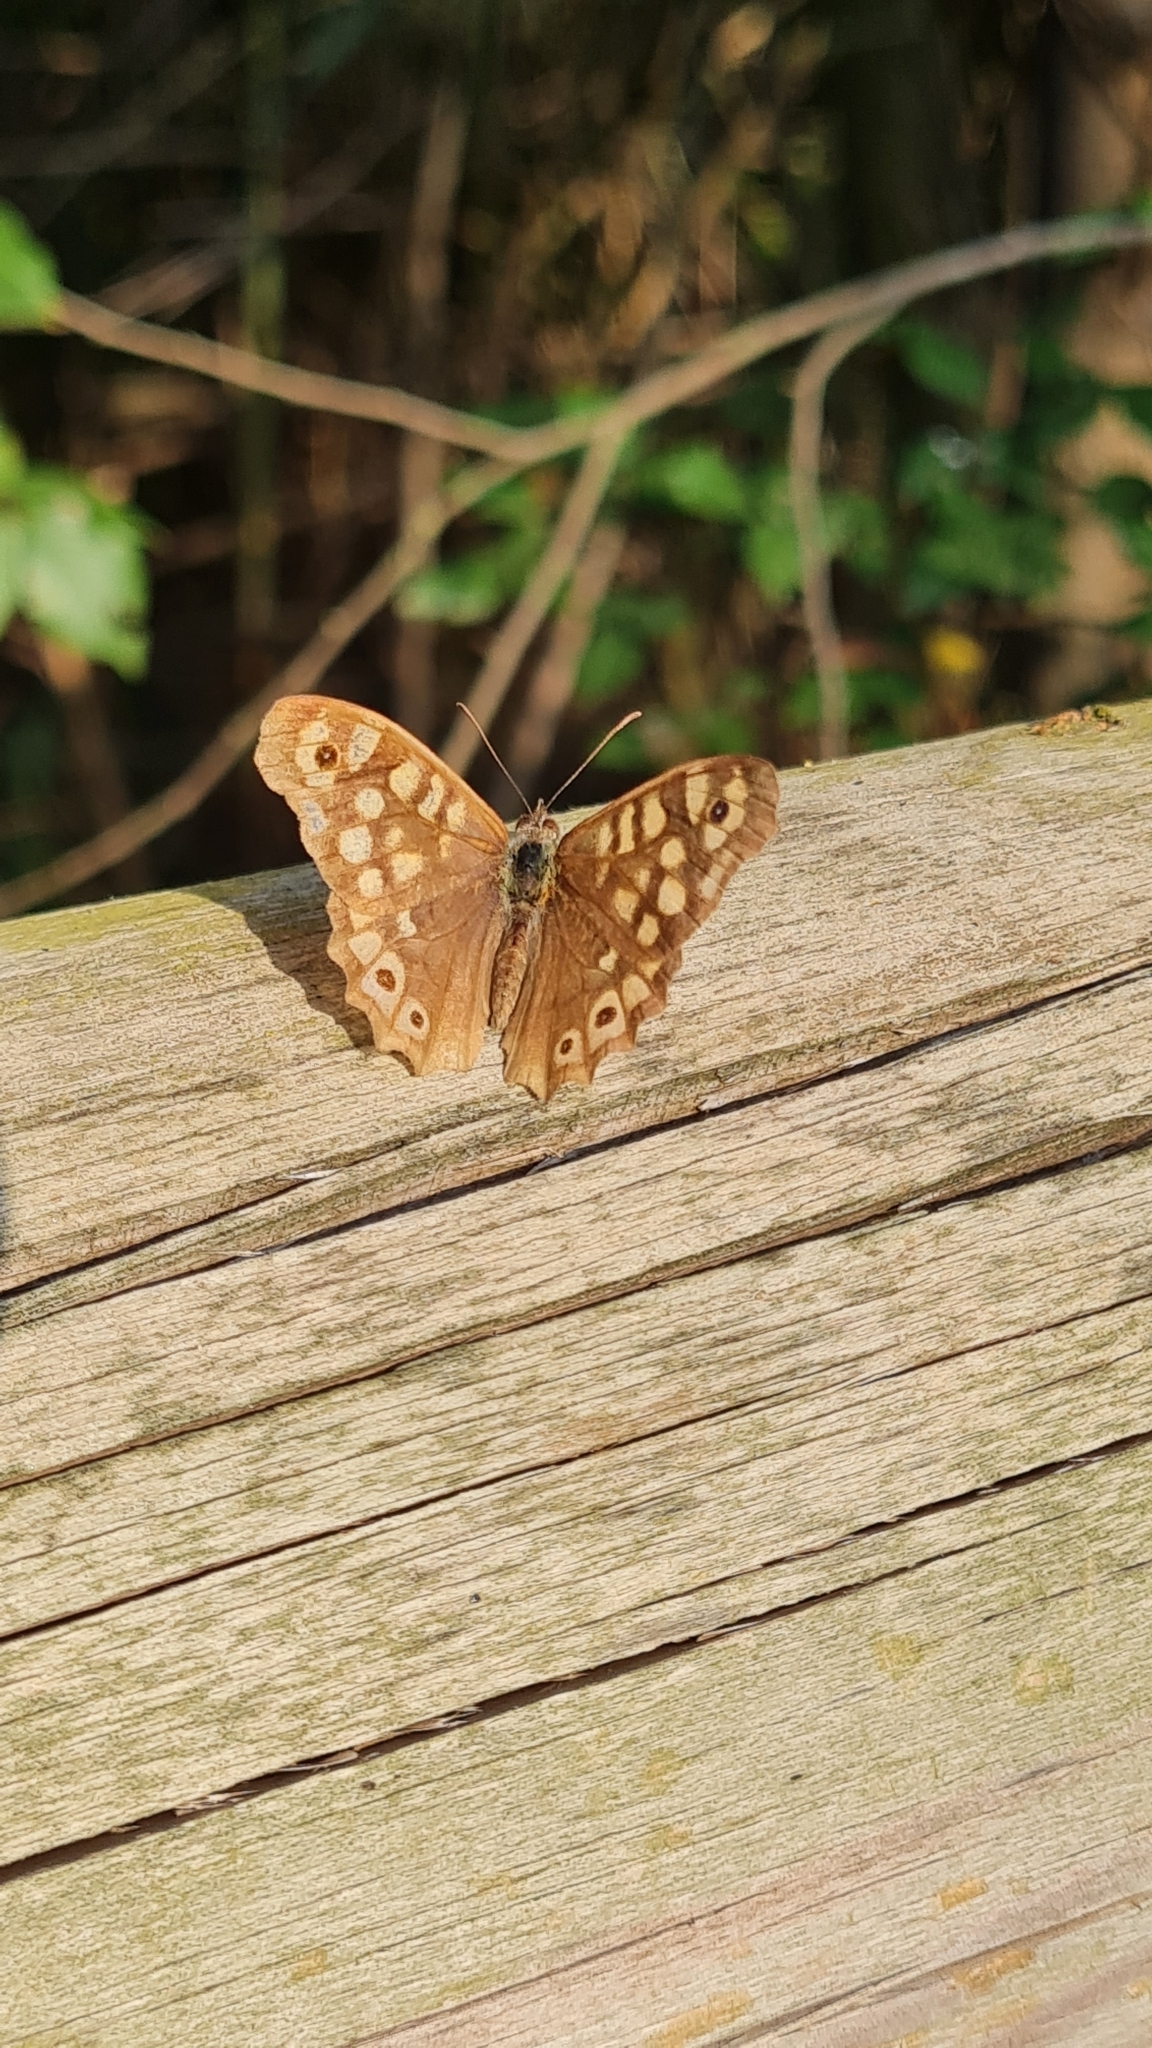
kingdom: Animalia
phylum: Arthropoda
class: Insecta
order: Lepidoptera
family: Nymphalidae
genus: Pararge
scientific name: Pararge aegeria
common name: Speckled wood
